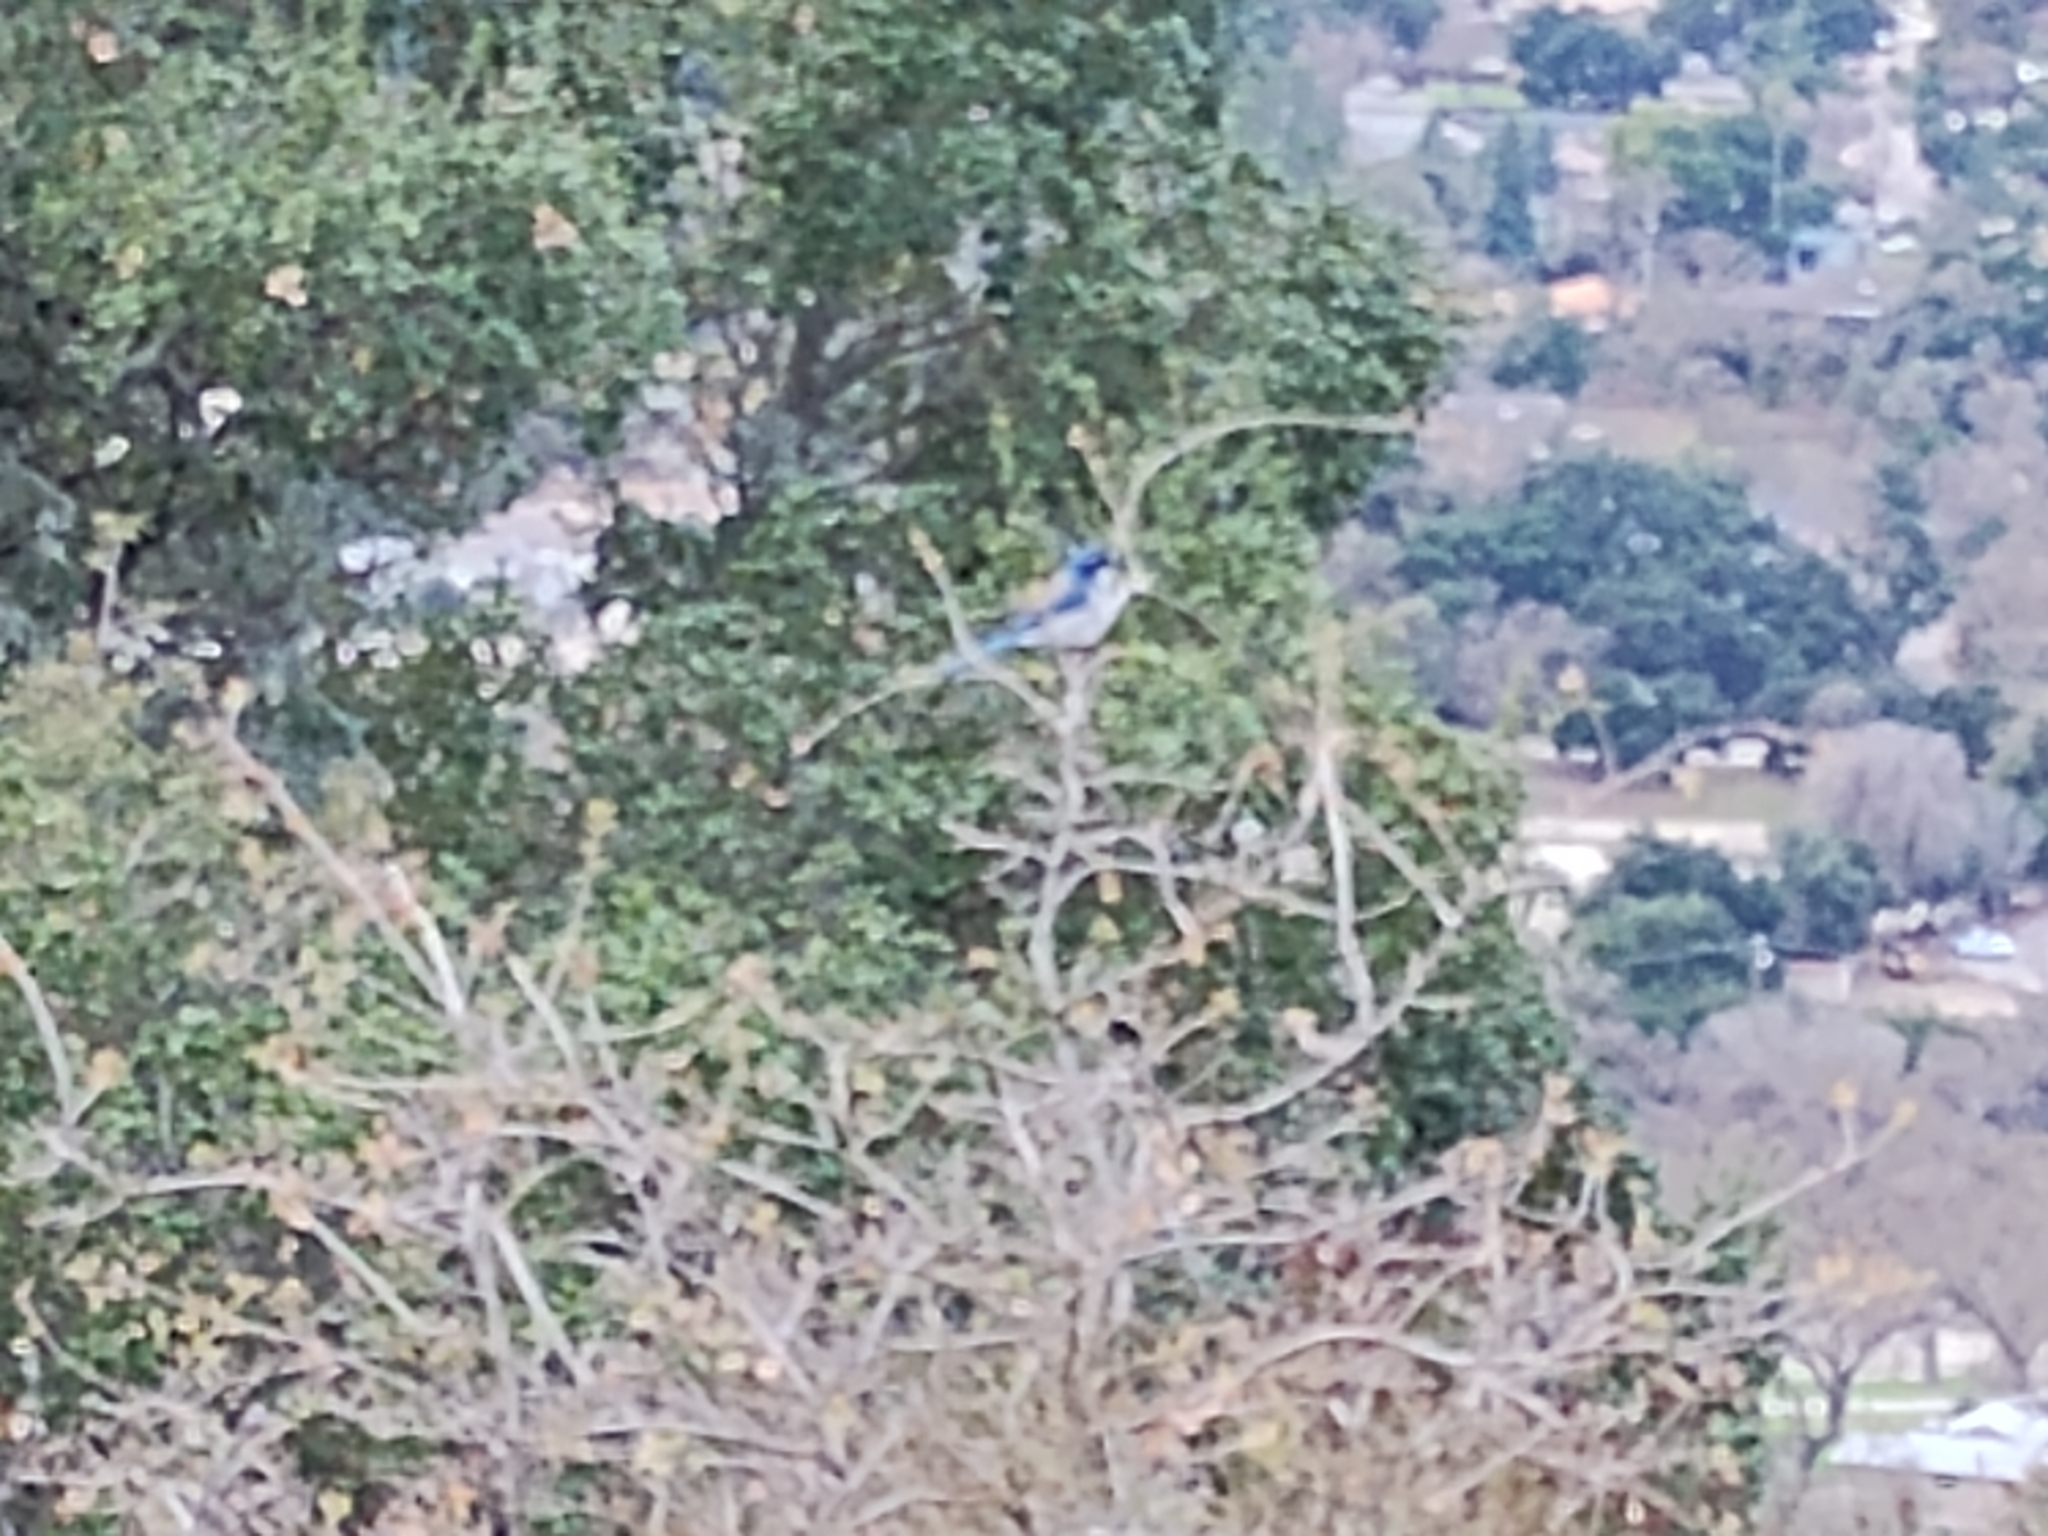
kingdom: Animalia
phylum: Chordata
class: Aves
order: Passeriformes
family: Corvidae
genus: Aphelocoma
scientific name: Aphelocoma californica
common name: California scrub-jay
